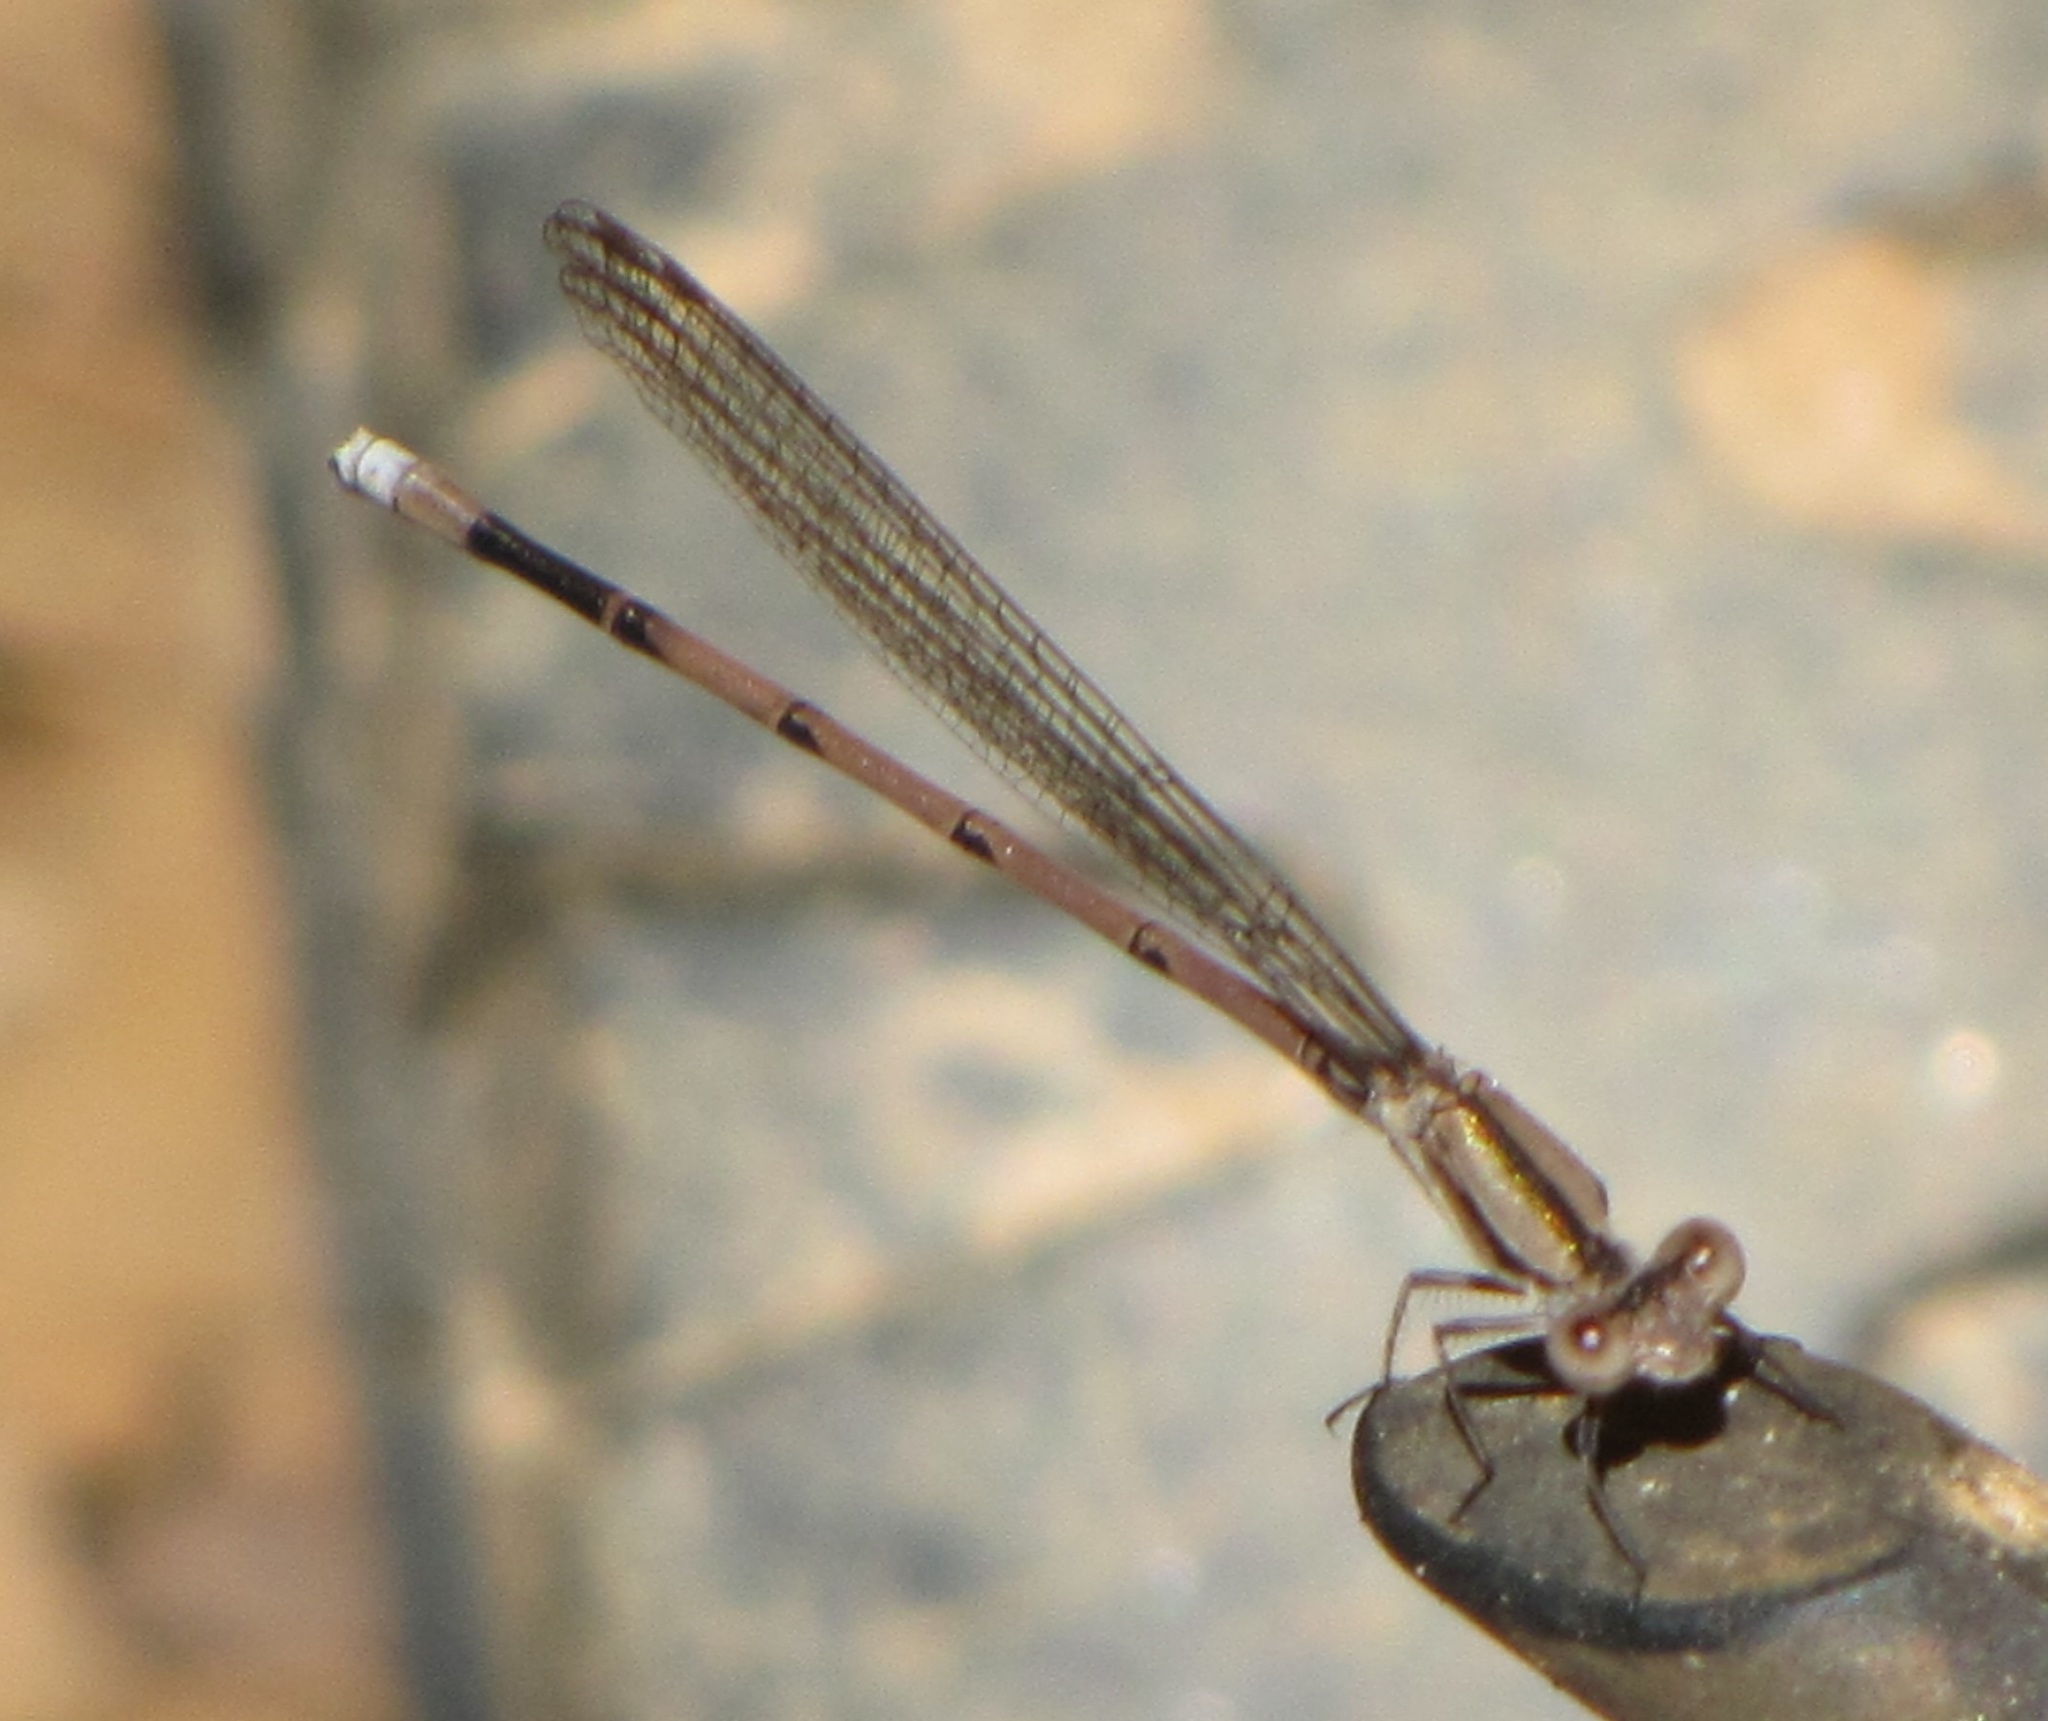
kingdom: Animalia
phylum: Arthropoda
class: Insecta
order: Odonata
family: Coenagrionidae
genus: Argia
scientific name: Argia fumipennis
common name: Variable dancer
